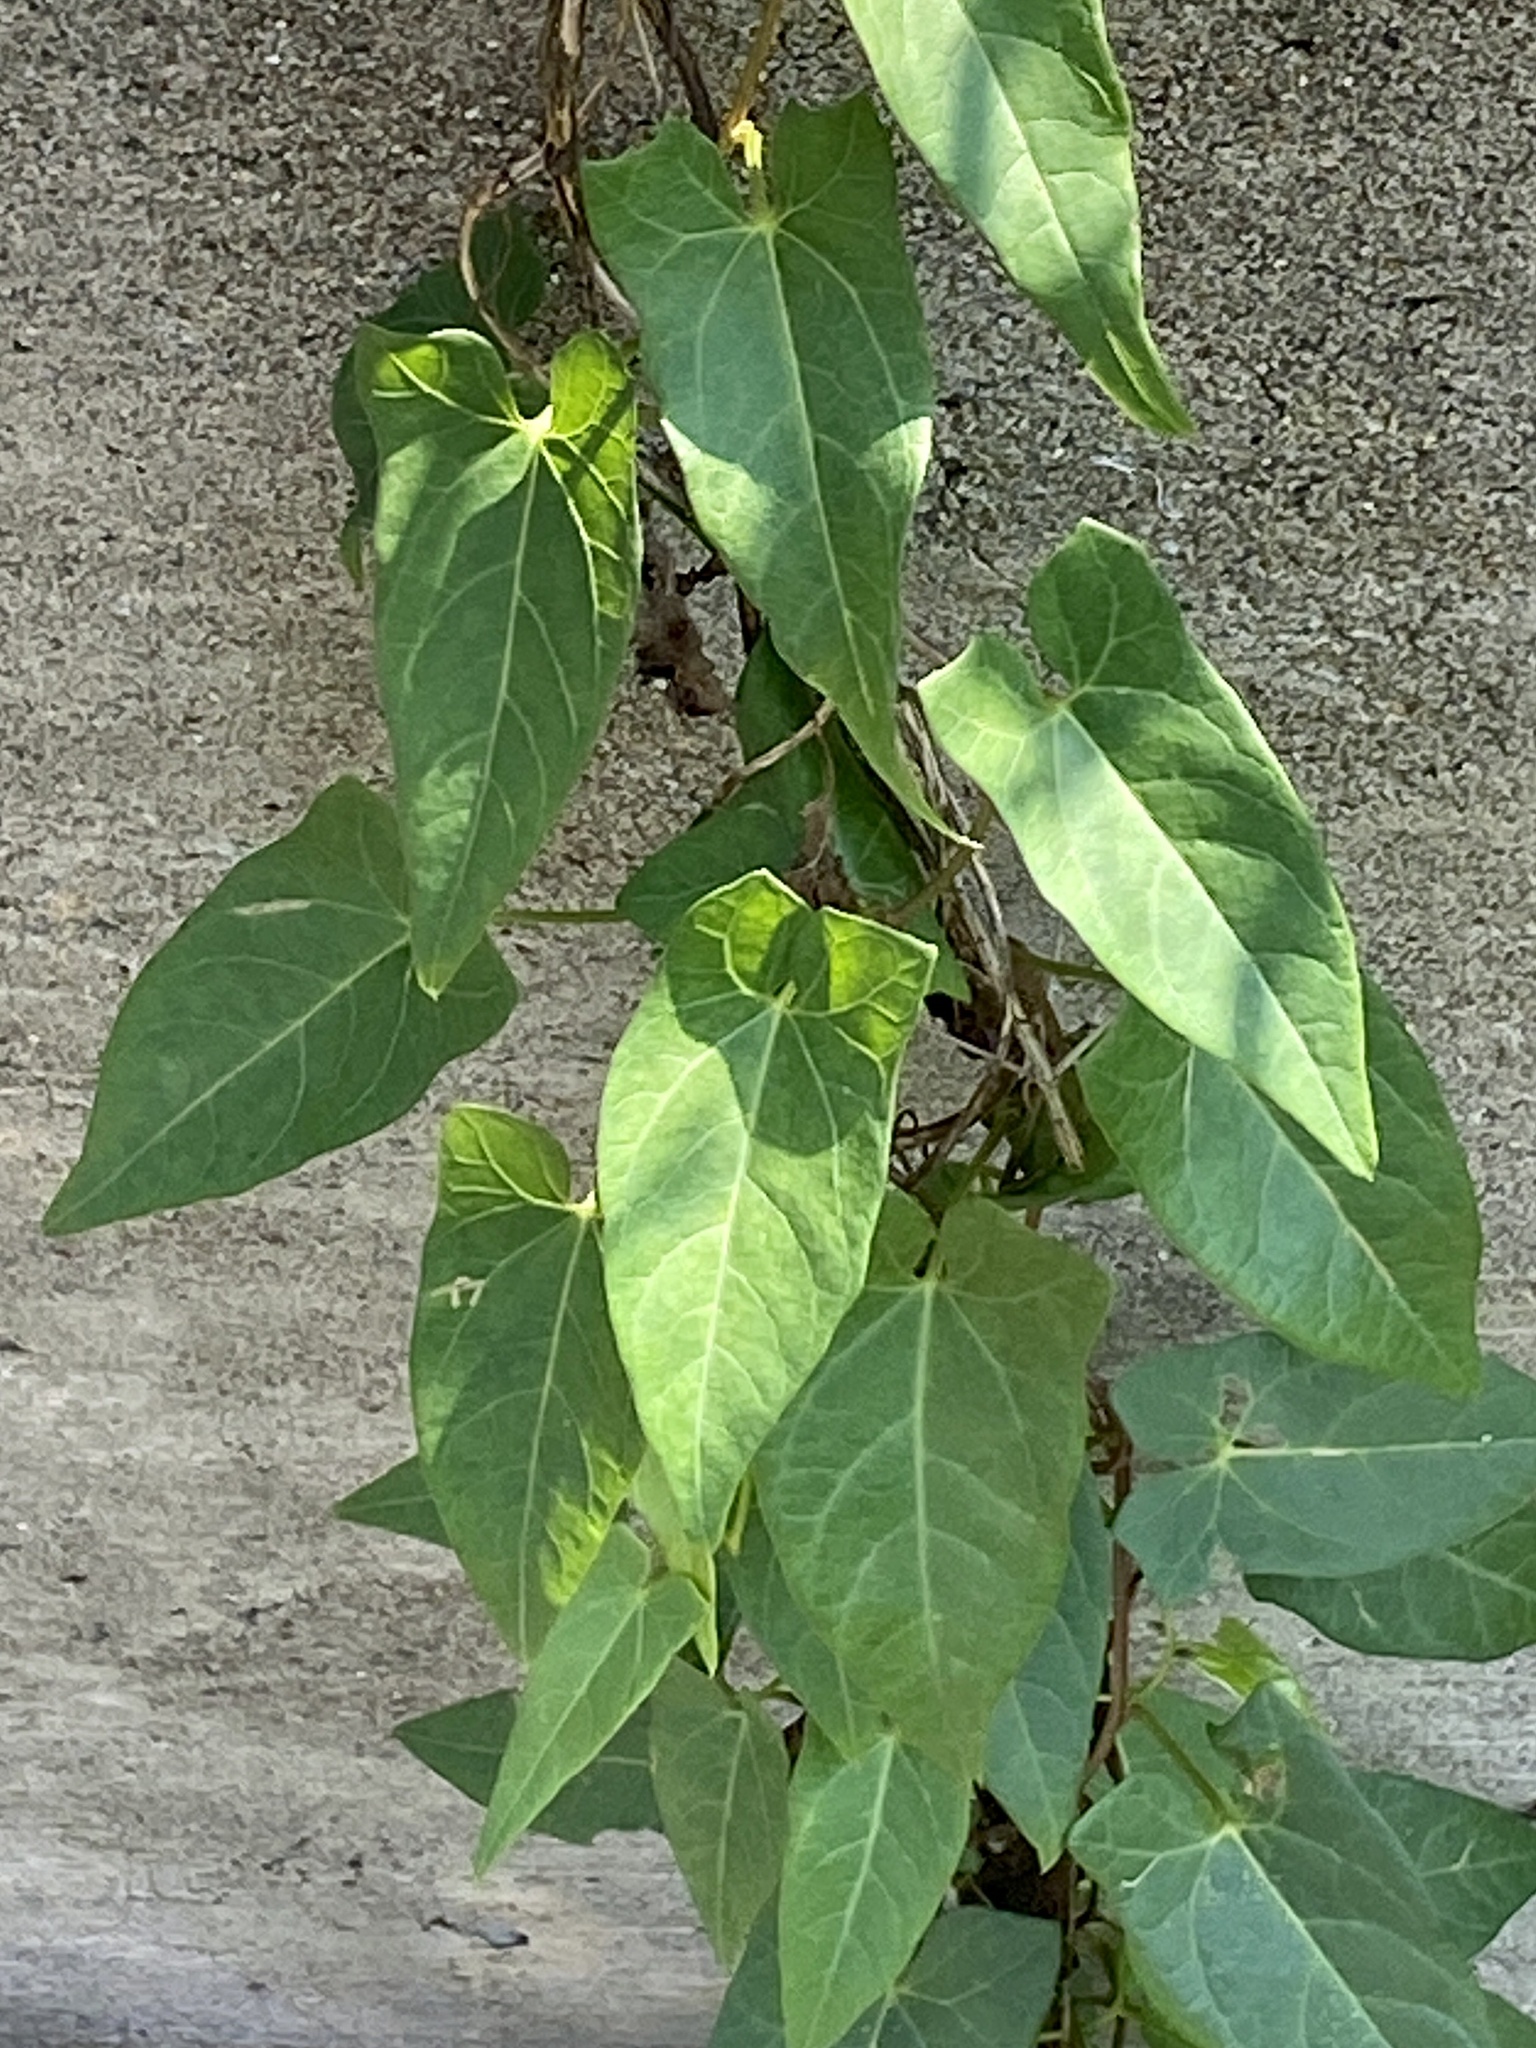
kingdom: Plantae
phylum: Tracheophyta
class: Magnoliopsida
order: Solanales
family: Convolvulaceae
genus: Calystegia
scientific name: Calystegia sepium
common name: Hedge bindweed
